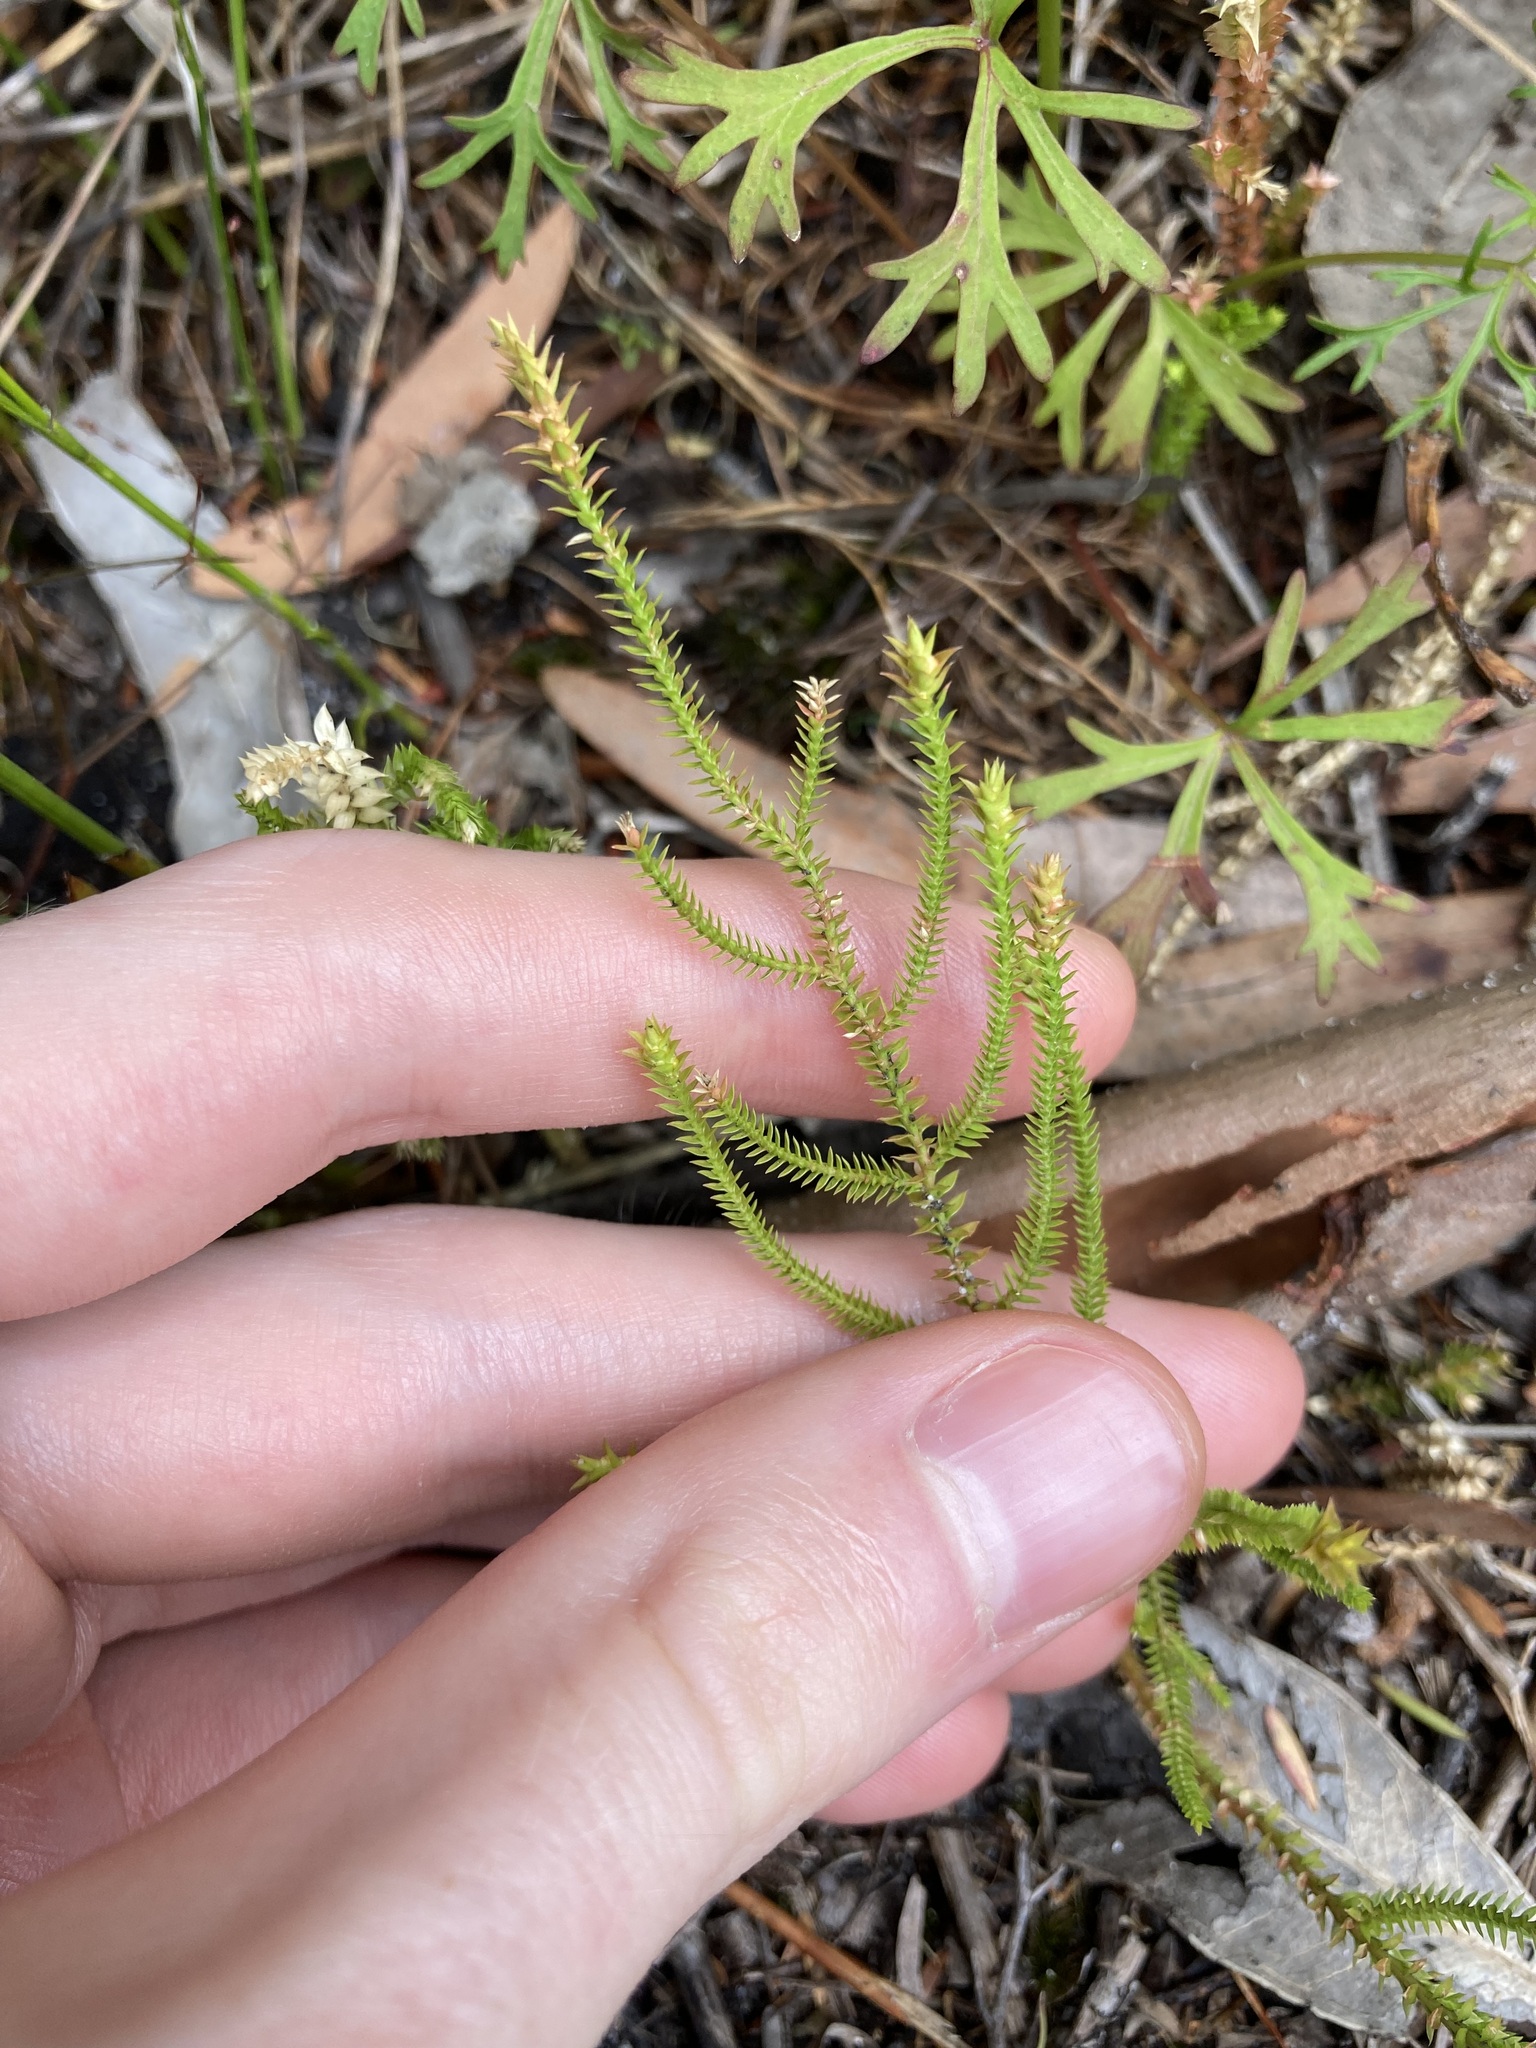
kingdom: Plantae
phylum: Tracheophyta
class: Lycopodiopsida
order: Selaginellales
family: Selaginellaceae
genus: Selaginella
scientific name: Selaginella uliginosa
